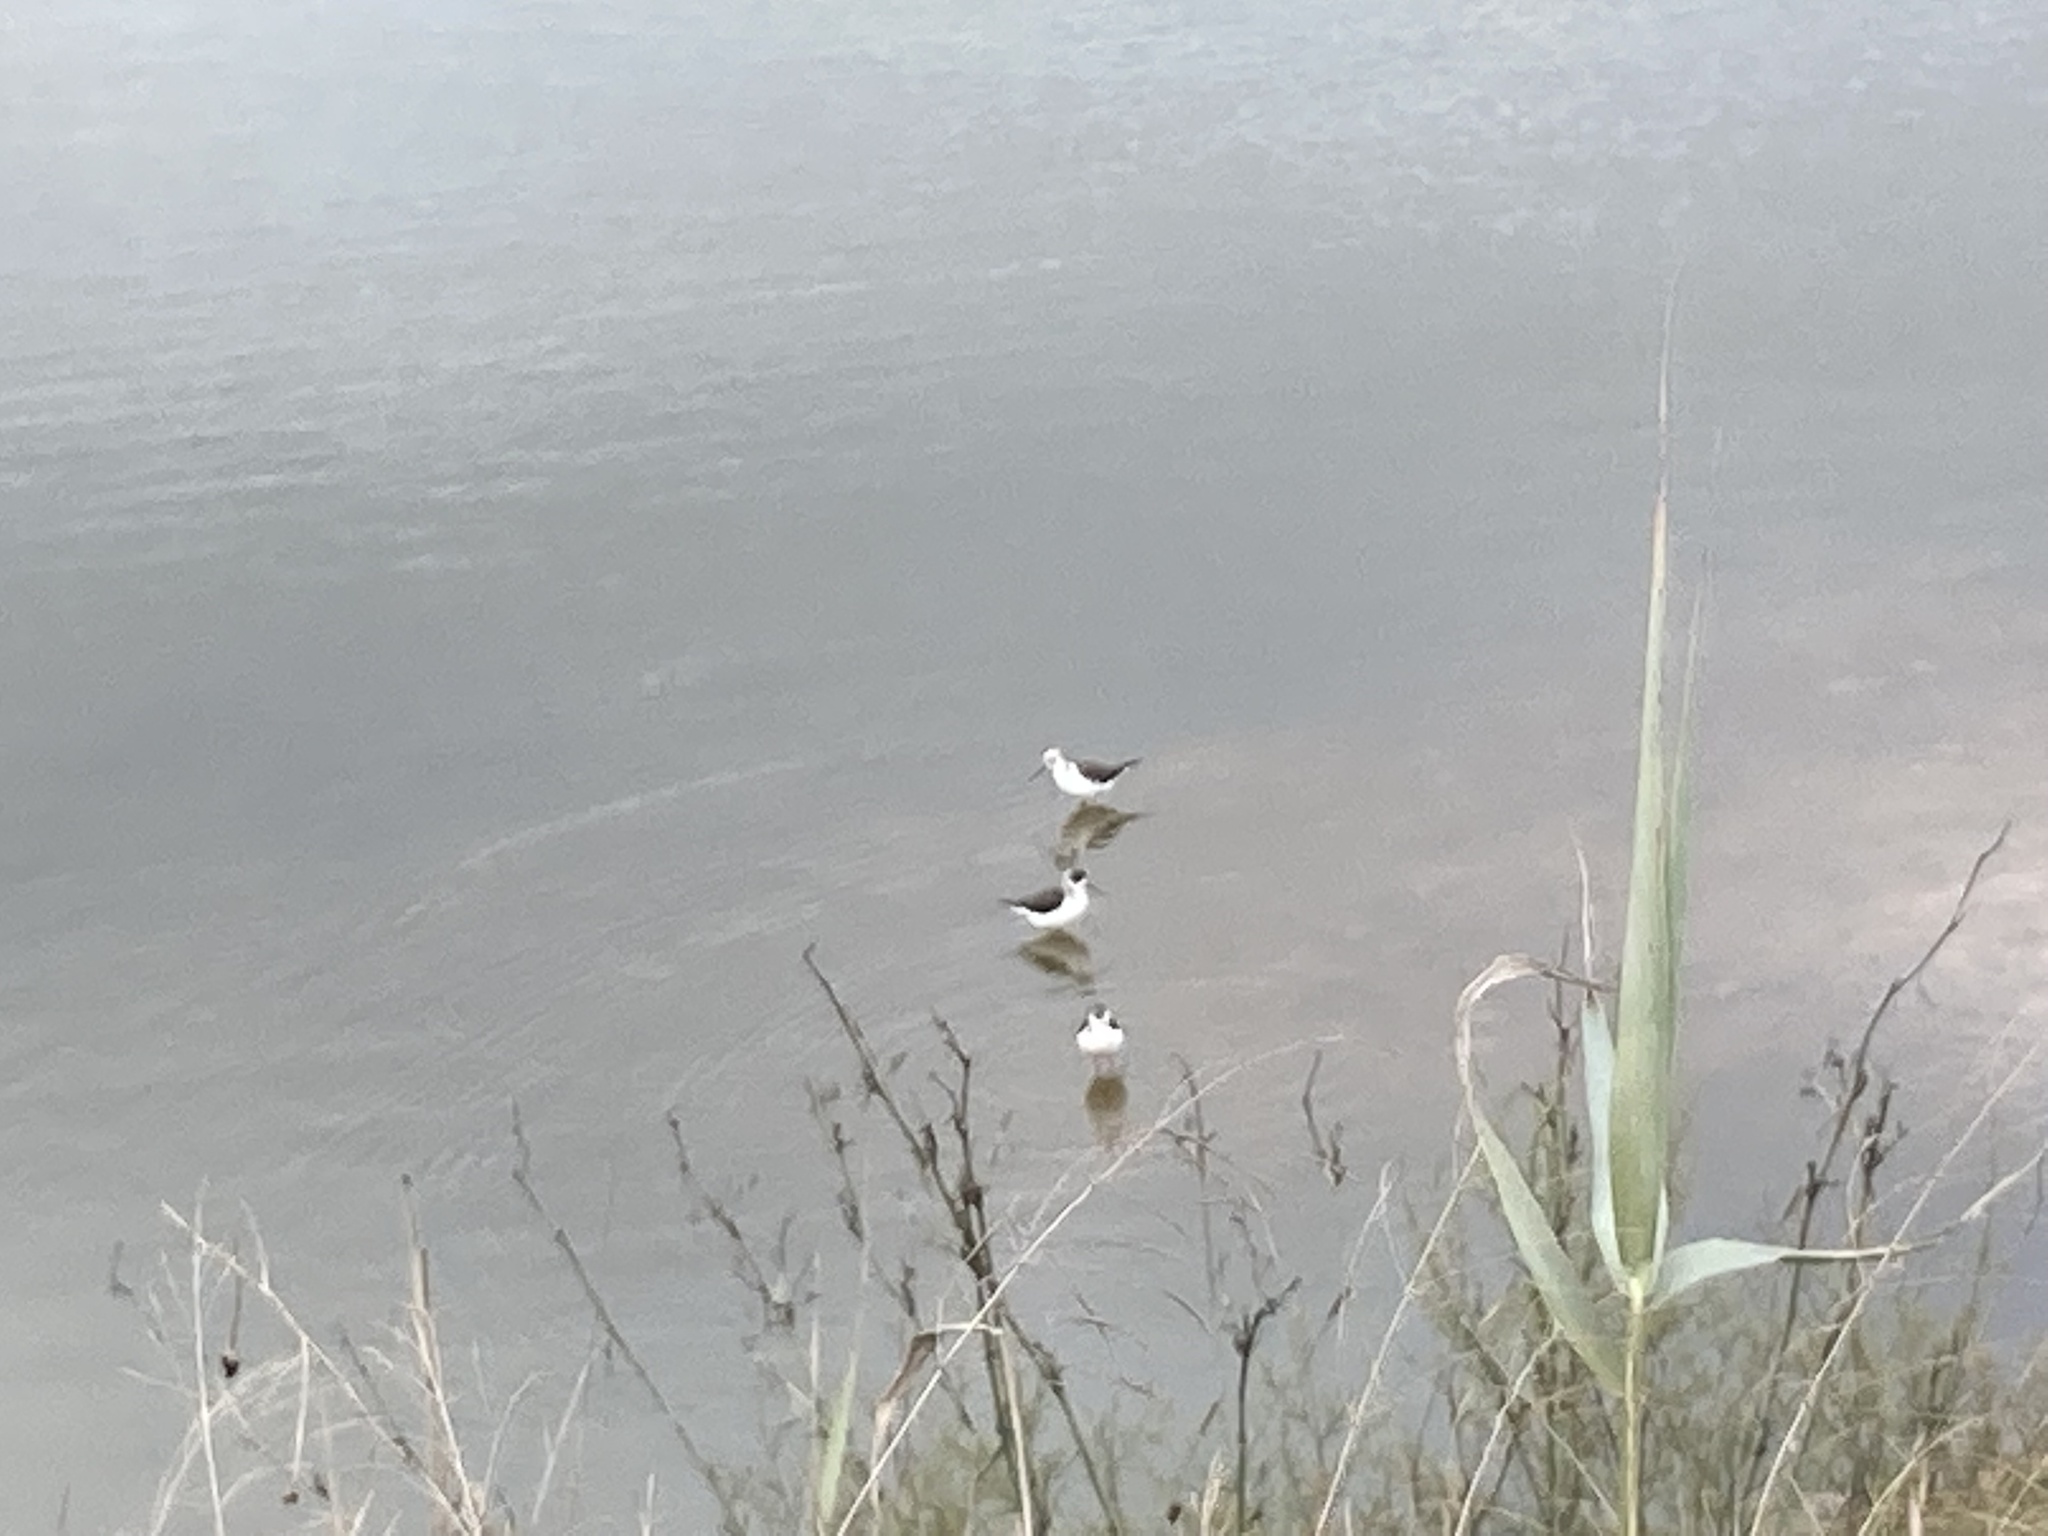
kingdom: Animalia
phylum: Chordata
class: Aves
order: Charadriiformes
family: Recurvirostridae
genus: Himantopus
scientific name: Himantopus himantopus
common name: Black-winged stilt
